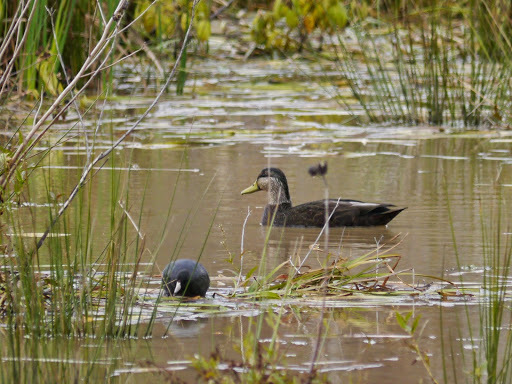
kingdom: Animalia
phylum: Chordata
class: Aves
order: Anseriformes
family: Anatidae
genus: Anas
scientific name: Anas rubripes
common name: American black duck
